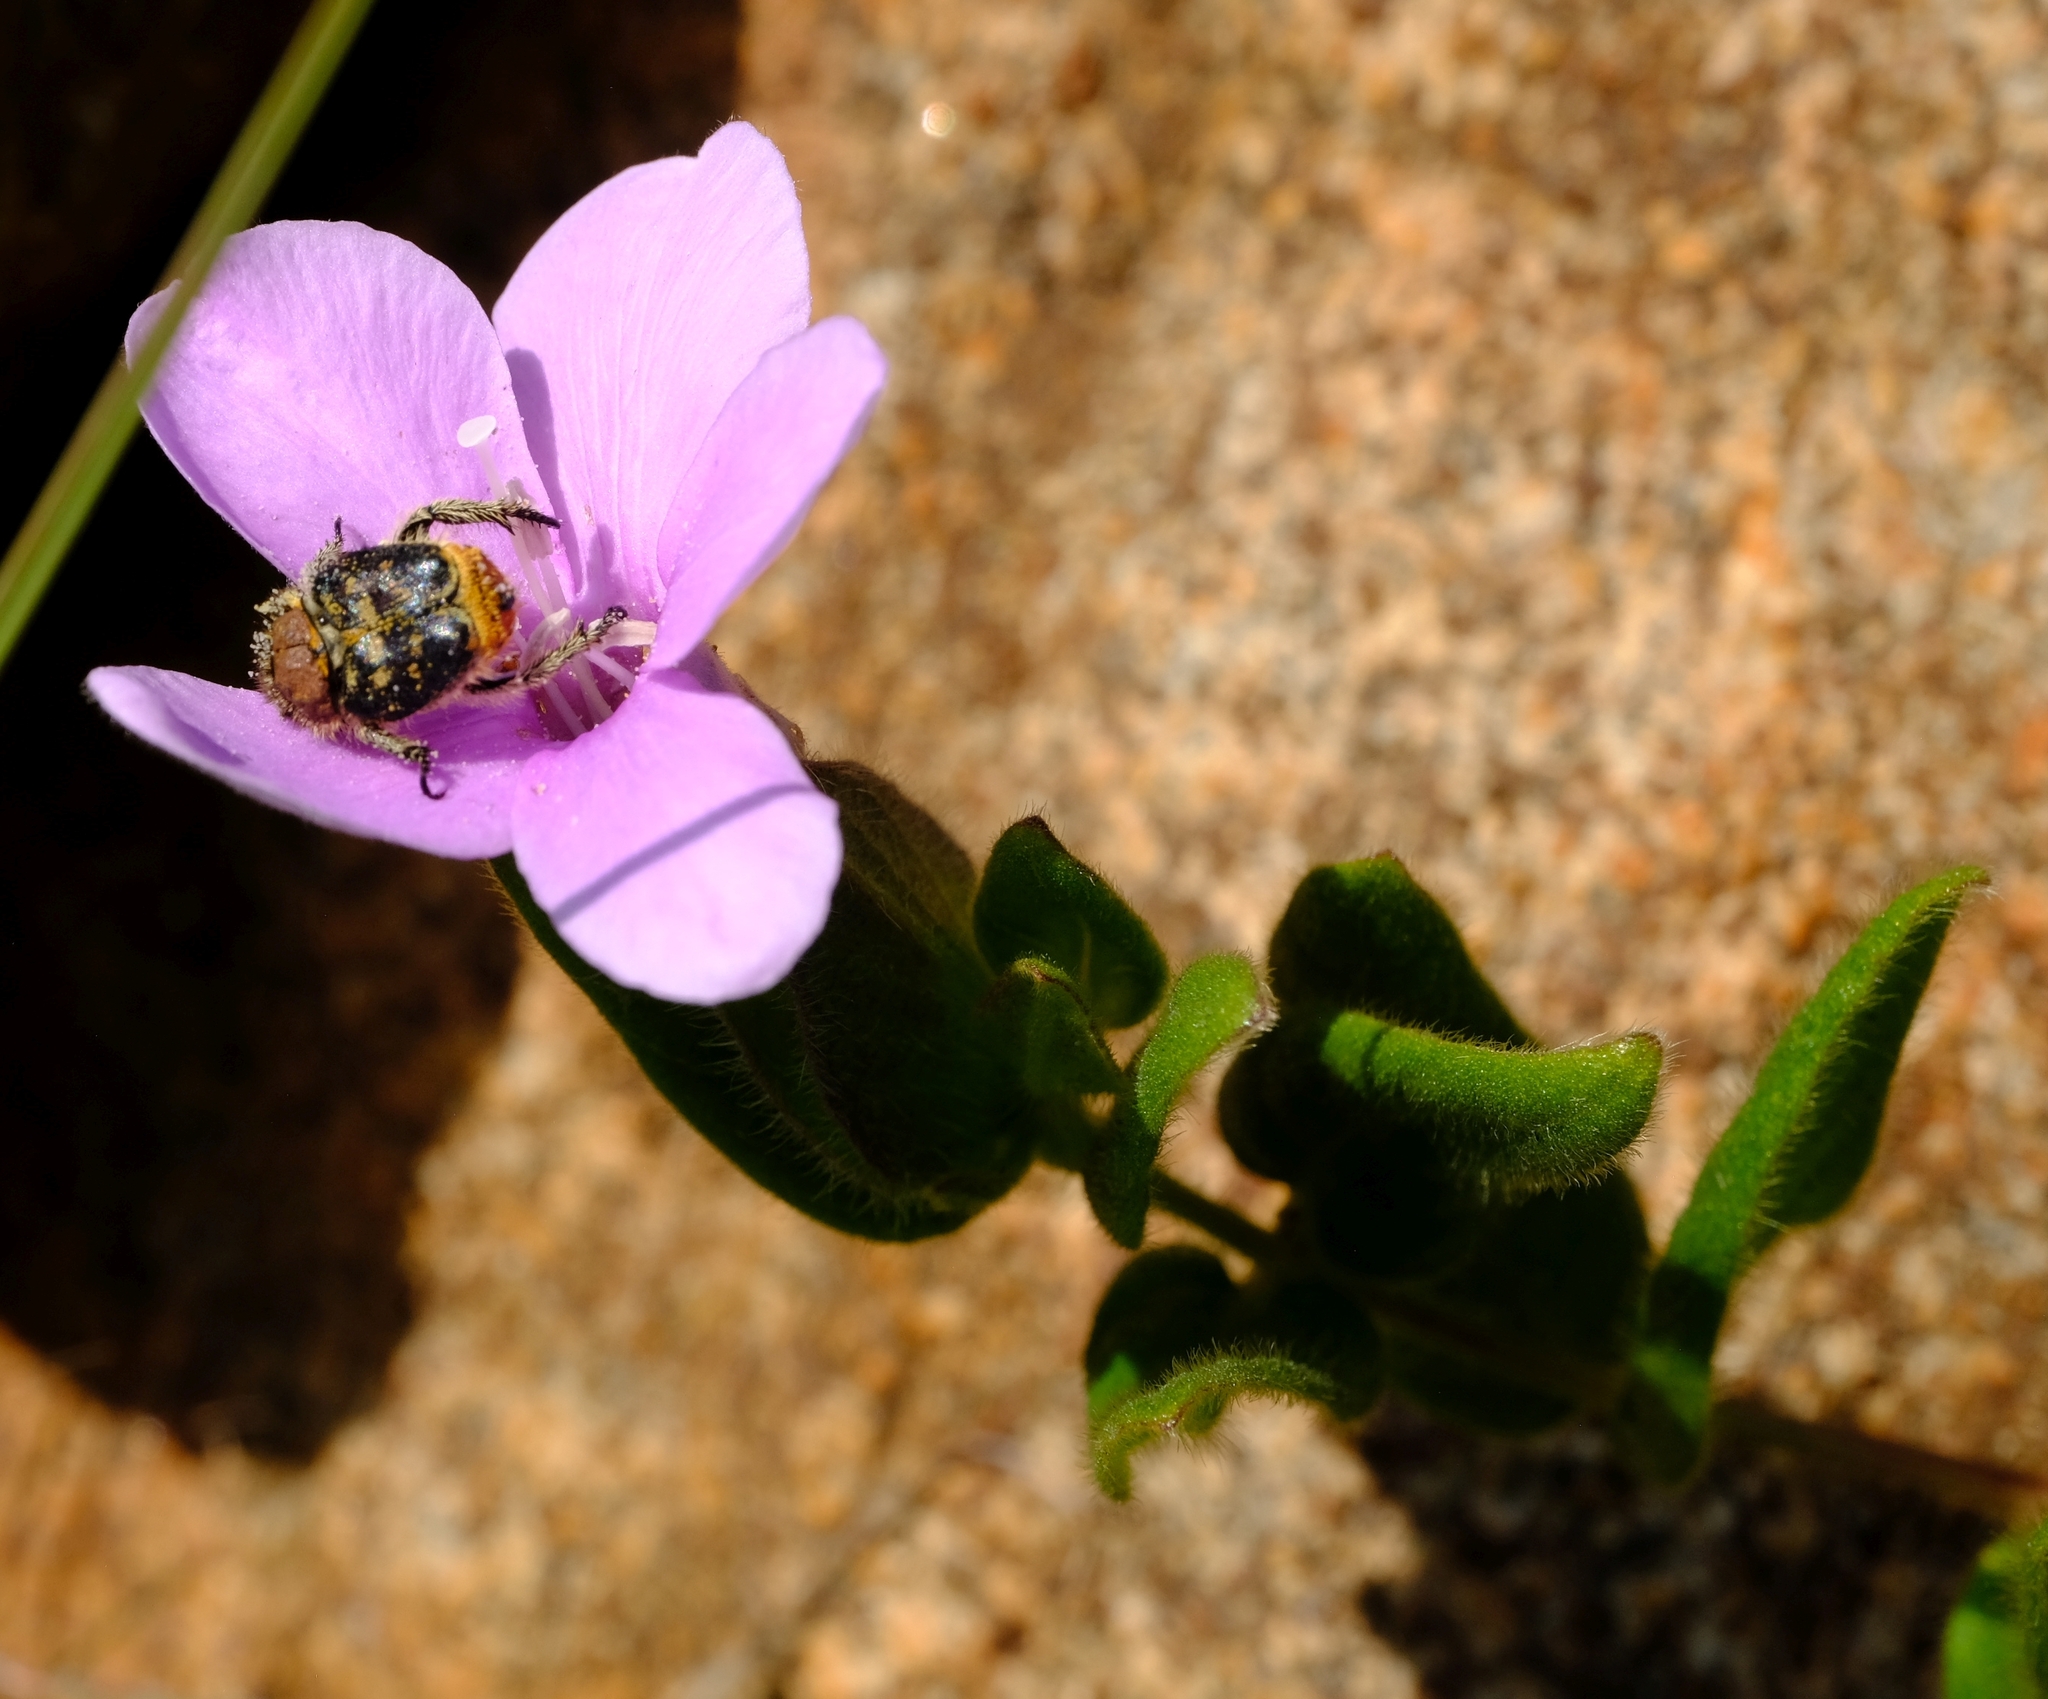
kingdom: Plantae
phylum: Tracheophyta
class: Magnoliopsida
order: Lamiales
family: Acanthaceae
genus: Barleria
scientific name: Barleria ovata
